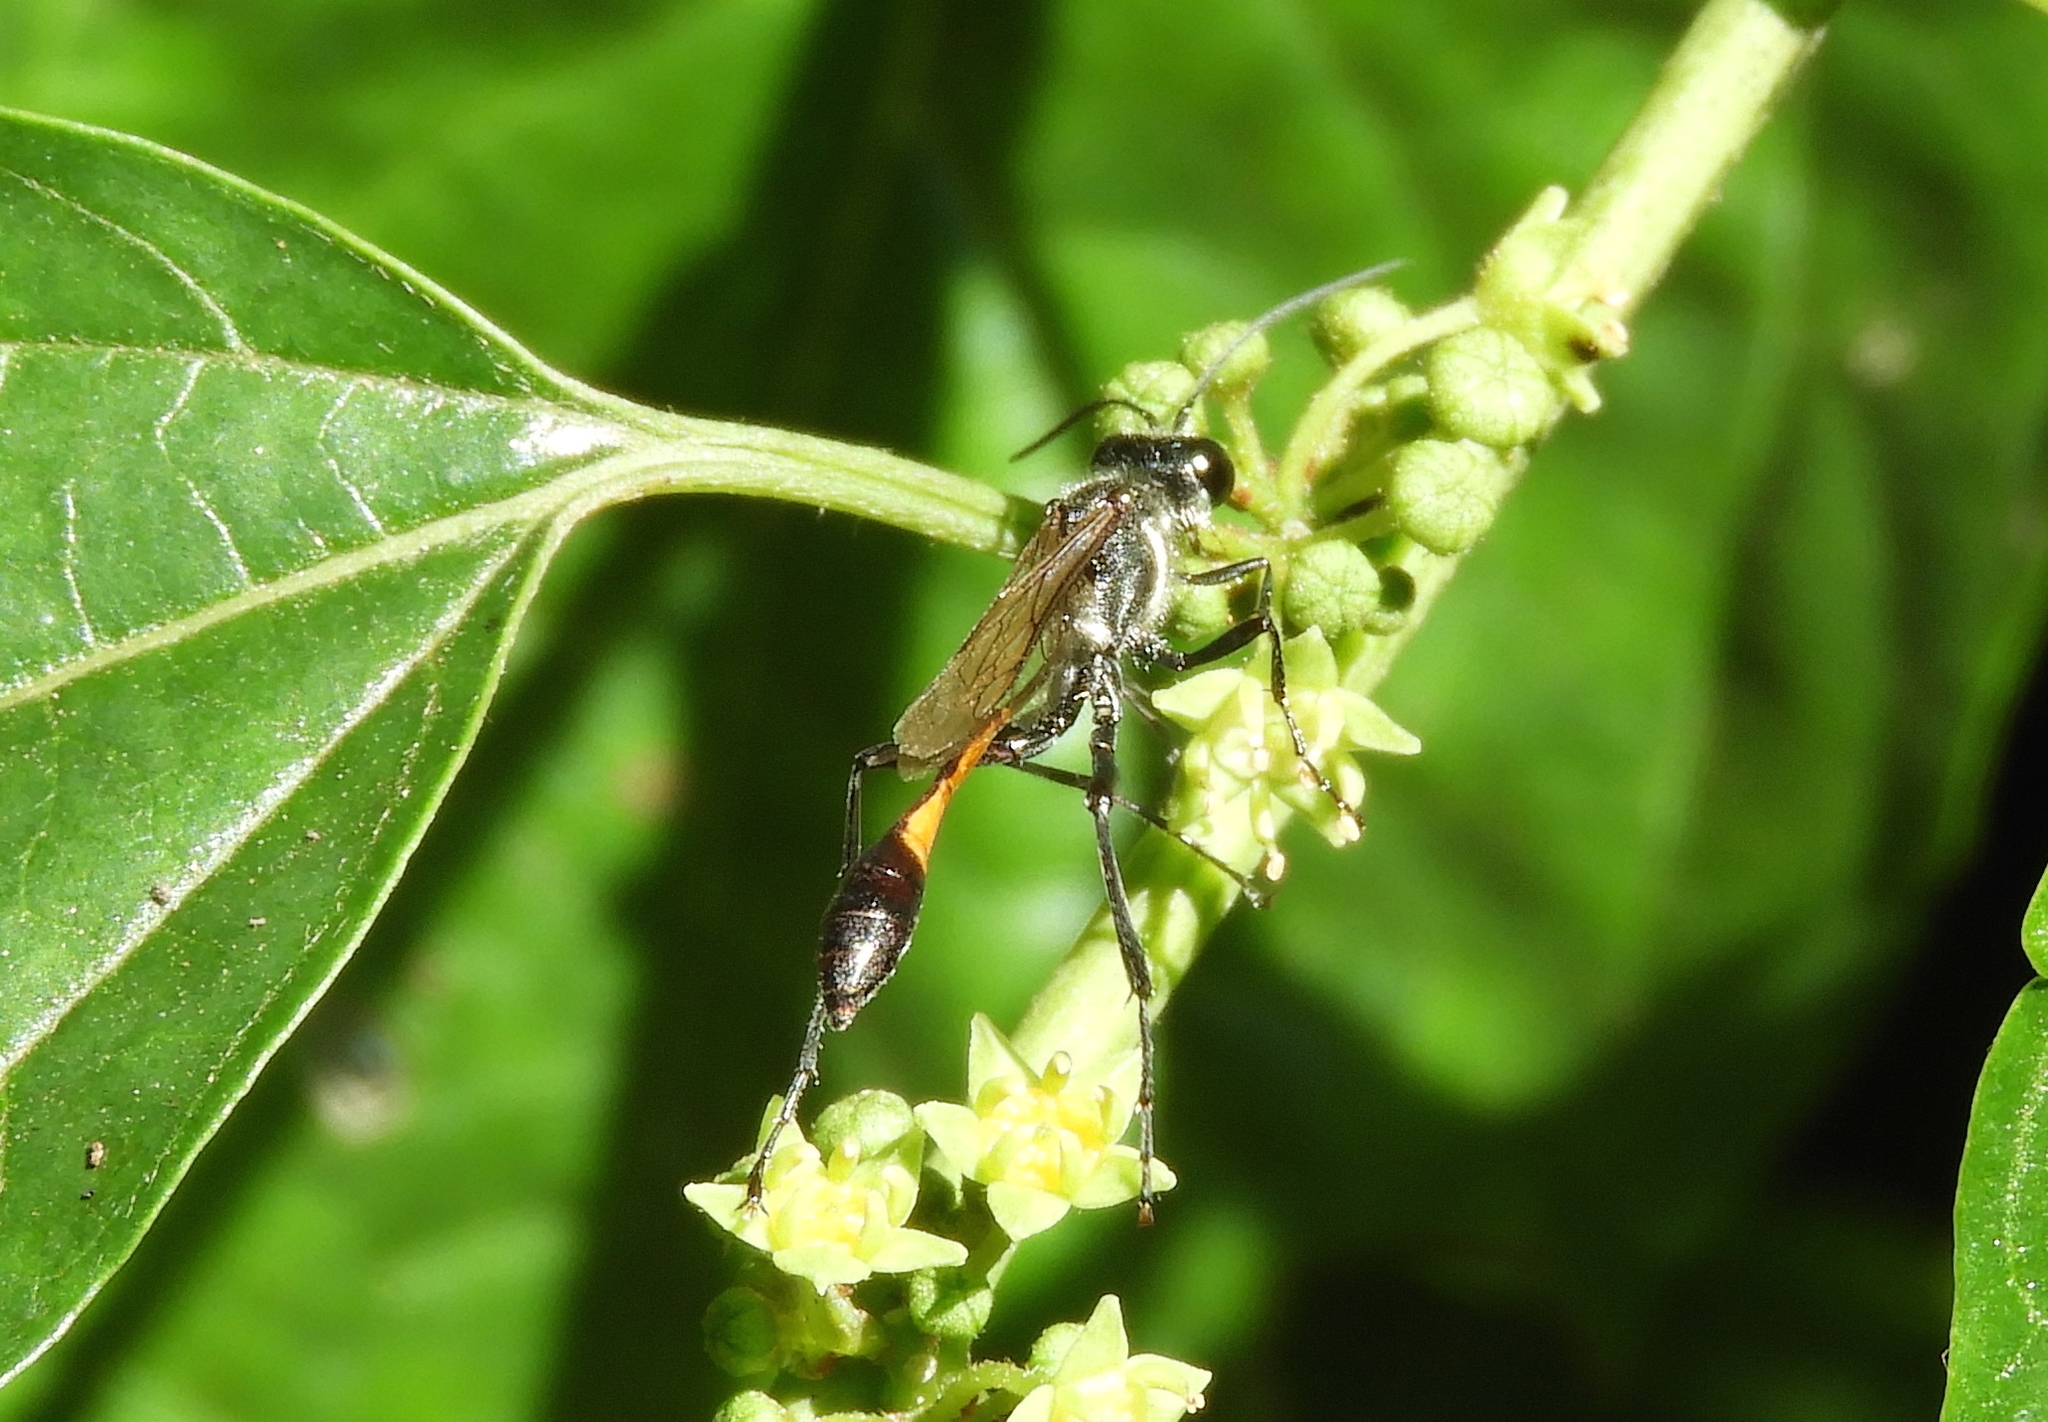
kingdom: Animalia
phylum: Arthropoda
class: Insecta
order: Hymenoptera
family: Sphecidae
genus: Ammophila
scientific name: Ammophila
